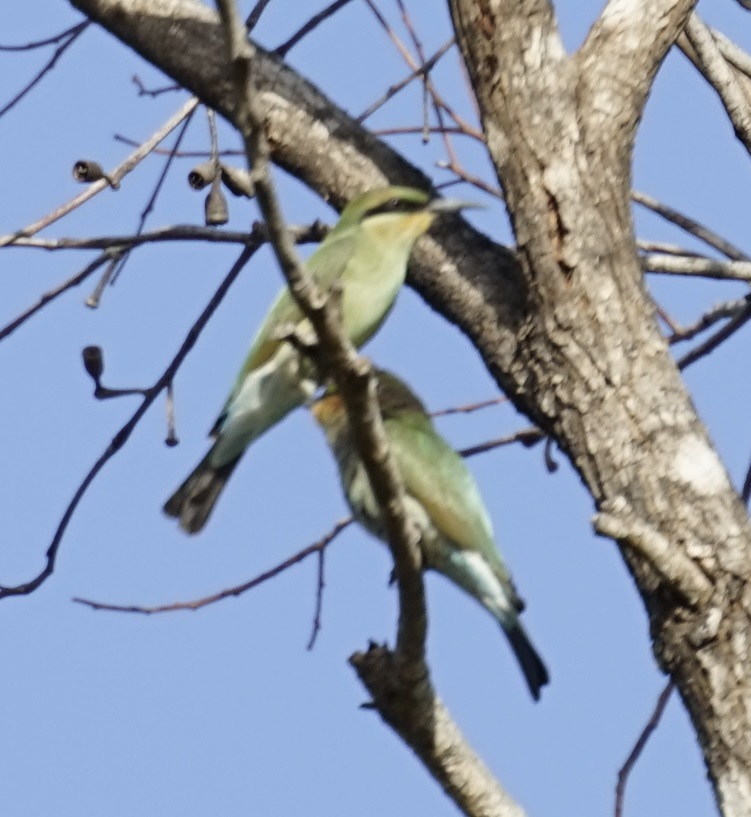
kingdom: Animalia
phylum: Chordata
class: Aves
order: Coraciiformes
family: Meropidae
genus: Merops
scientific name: Merops ornatus
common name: Rainbow bee-eater
